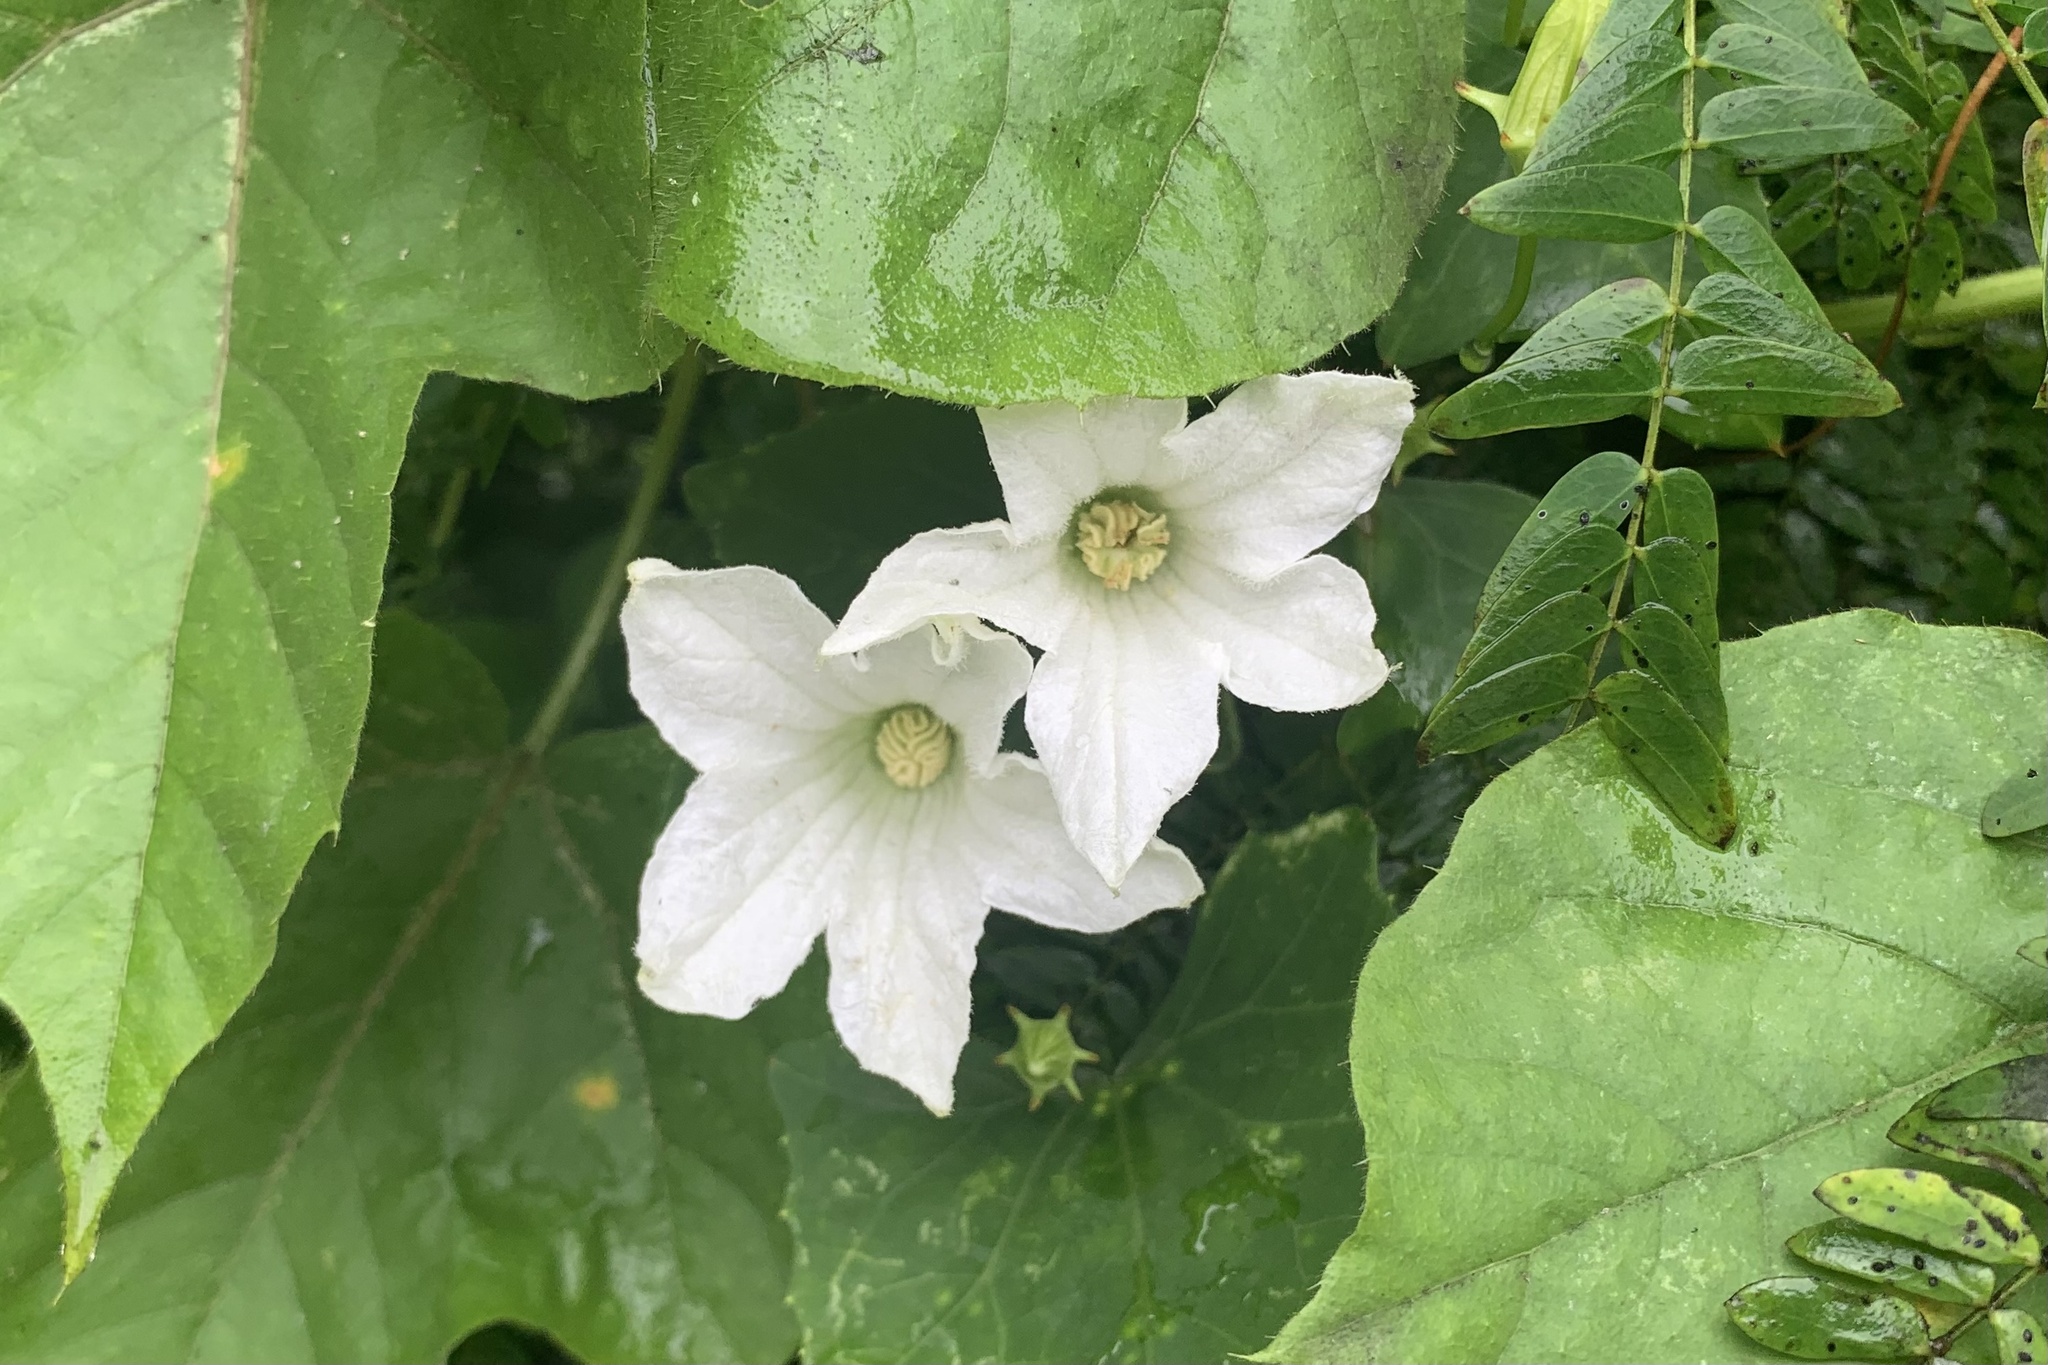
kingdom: Plantae
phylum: Tracheophyta
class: Magnoliopsida
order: Cucurbitales
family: Cucurbitaceae
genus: Coccinia
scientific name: Coccinia grandis
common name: Ivy gourd
